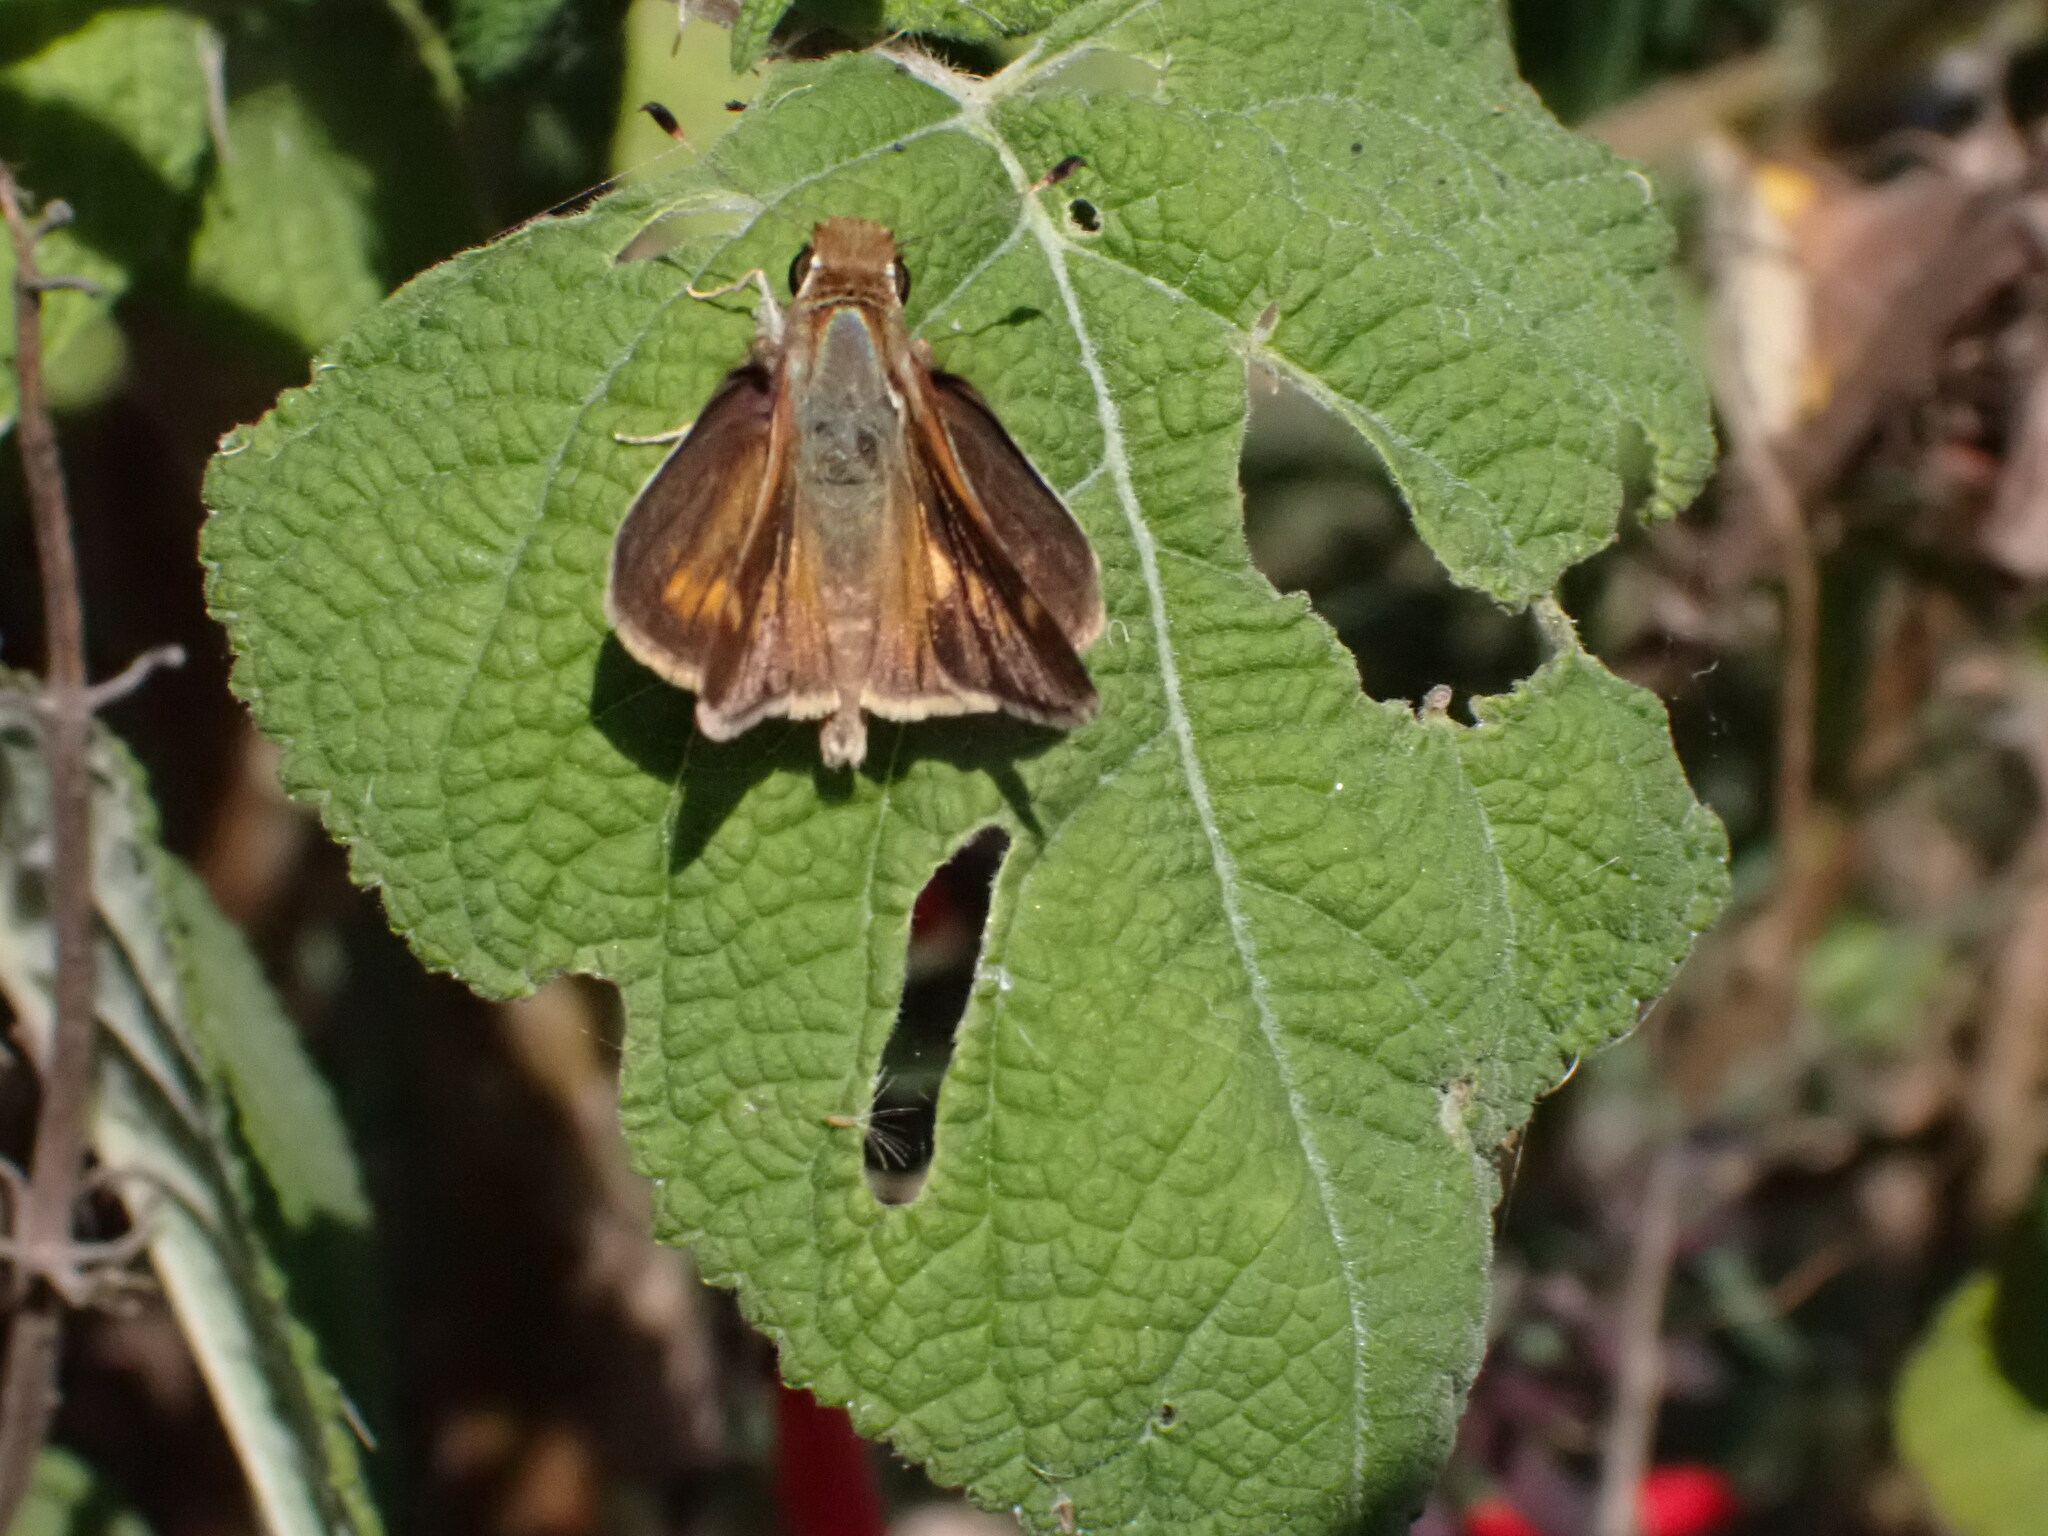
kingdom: Animalia
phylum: Arthropoda
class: Insecta
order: Lepidoptera
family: Hesperiidae
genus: Lon
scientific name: Lon melane
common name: Umber skipper
